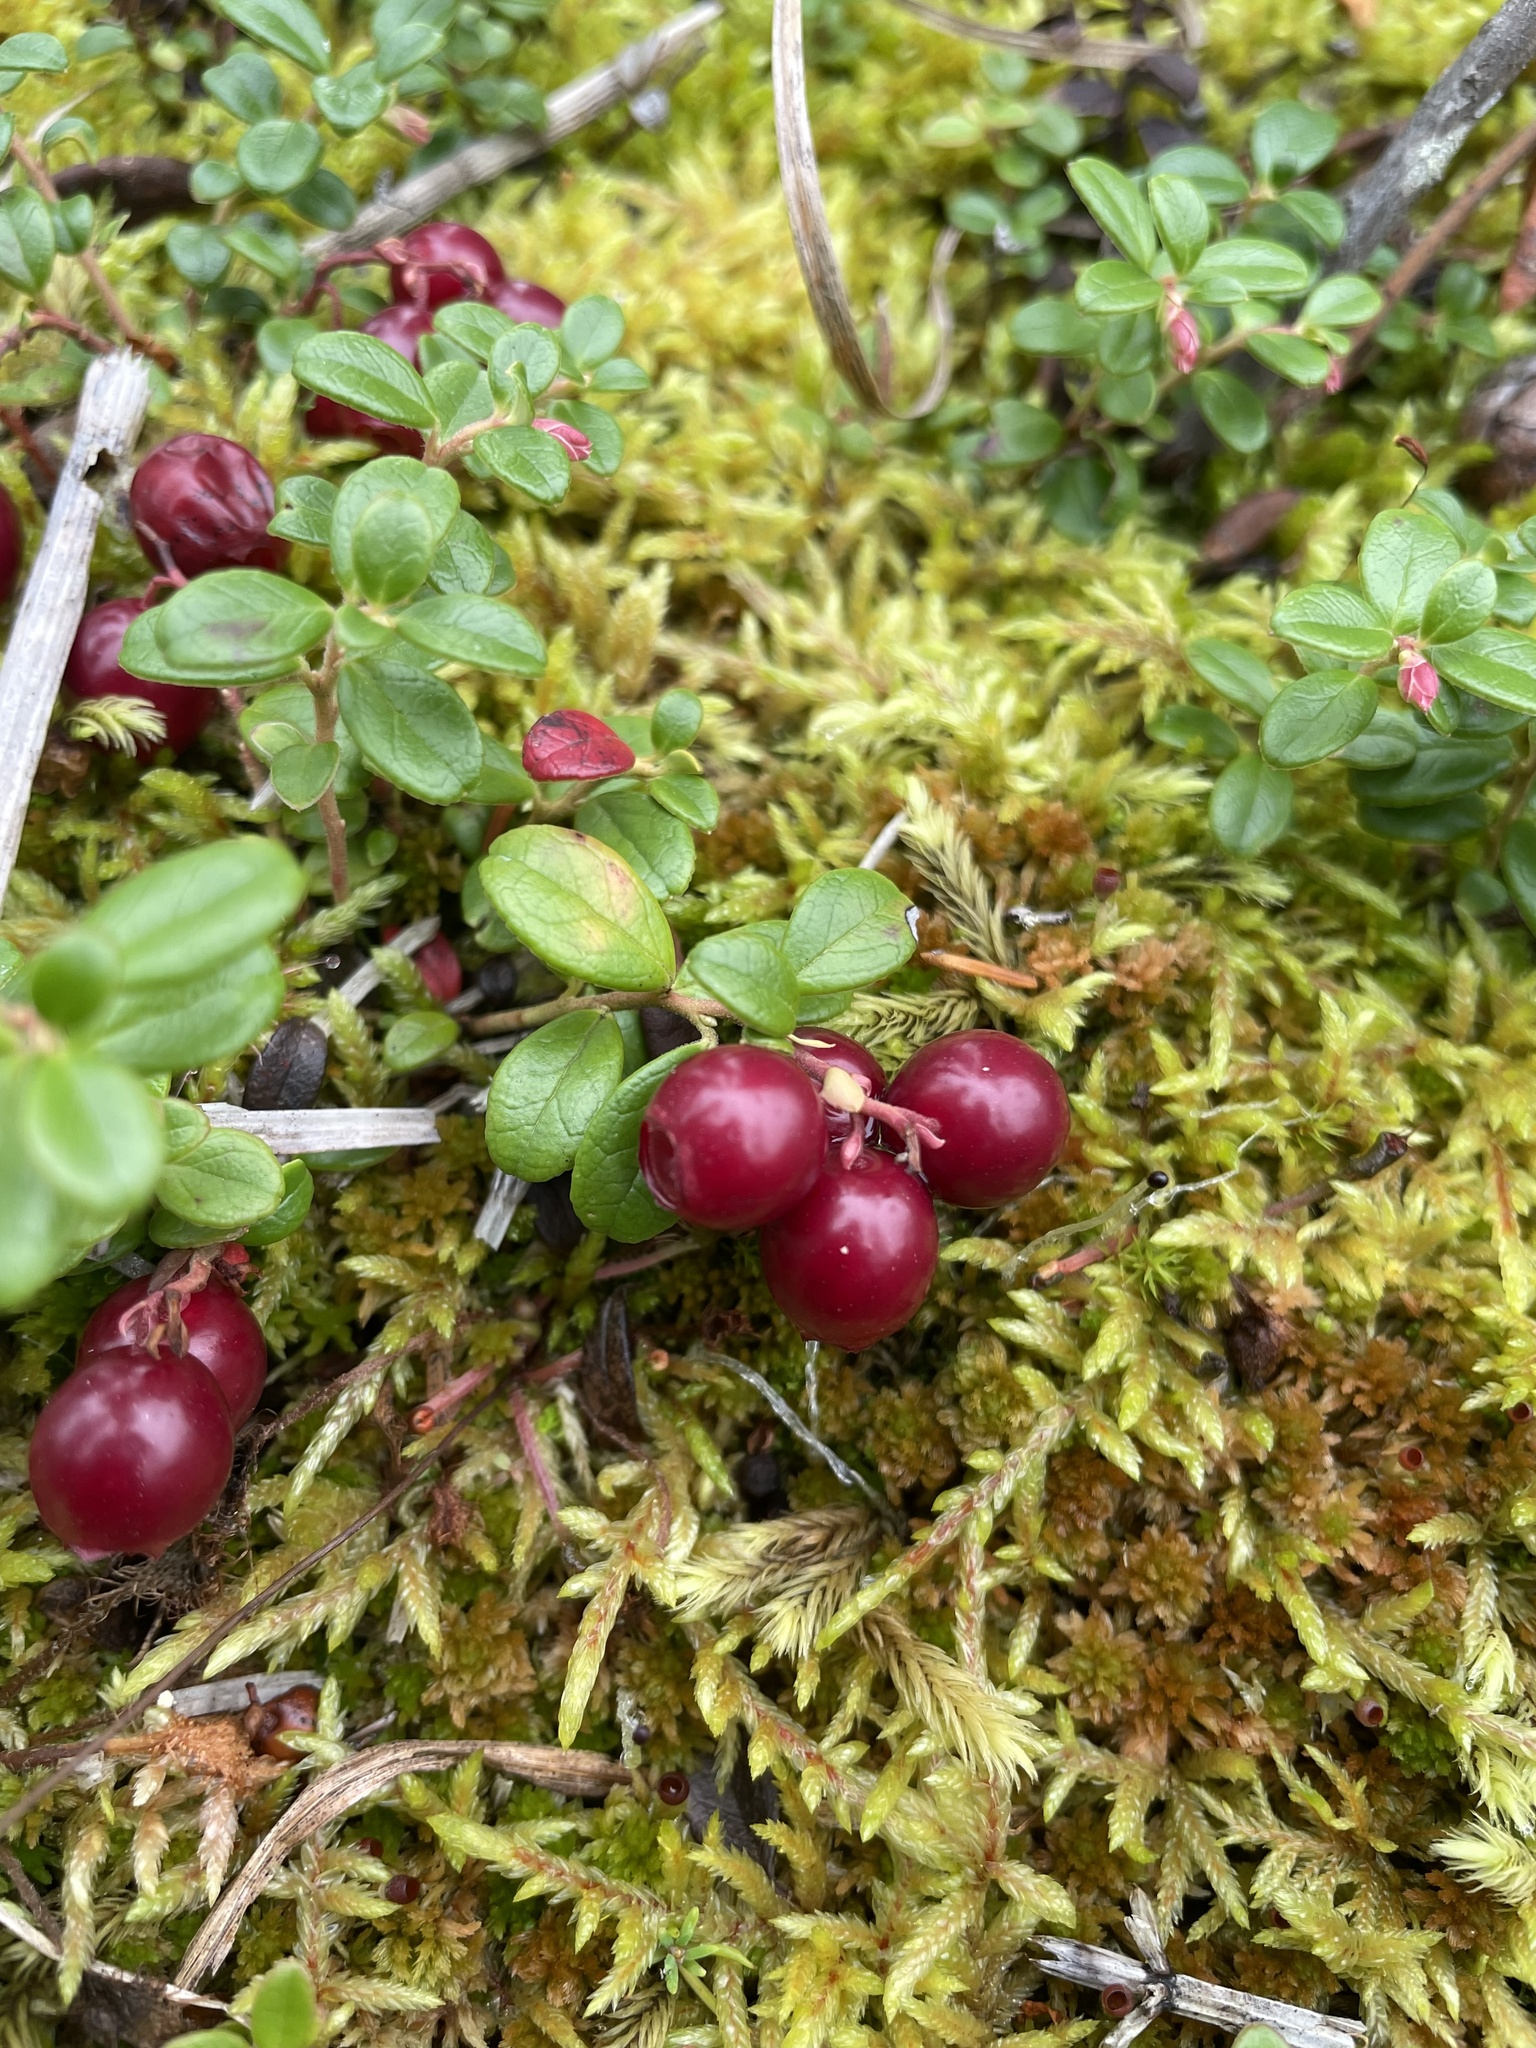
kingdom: Plantae
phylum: Tracheophyta
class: Magnoliopsida
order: Ericales
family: Ericaceae
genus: Vaccinium
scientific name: Vaccinium vitis-idaea
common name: Cowberry
